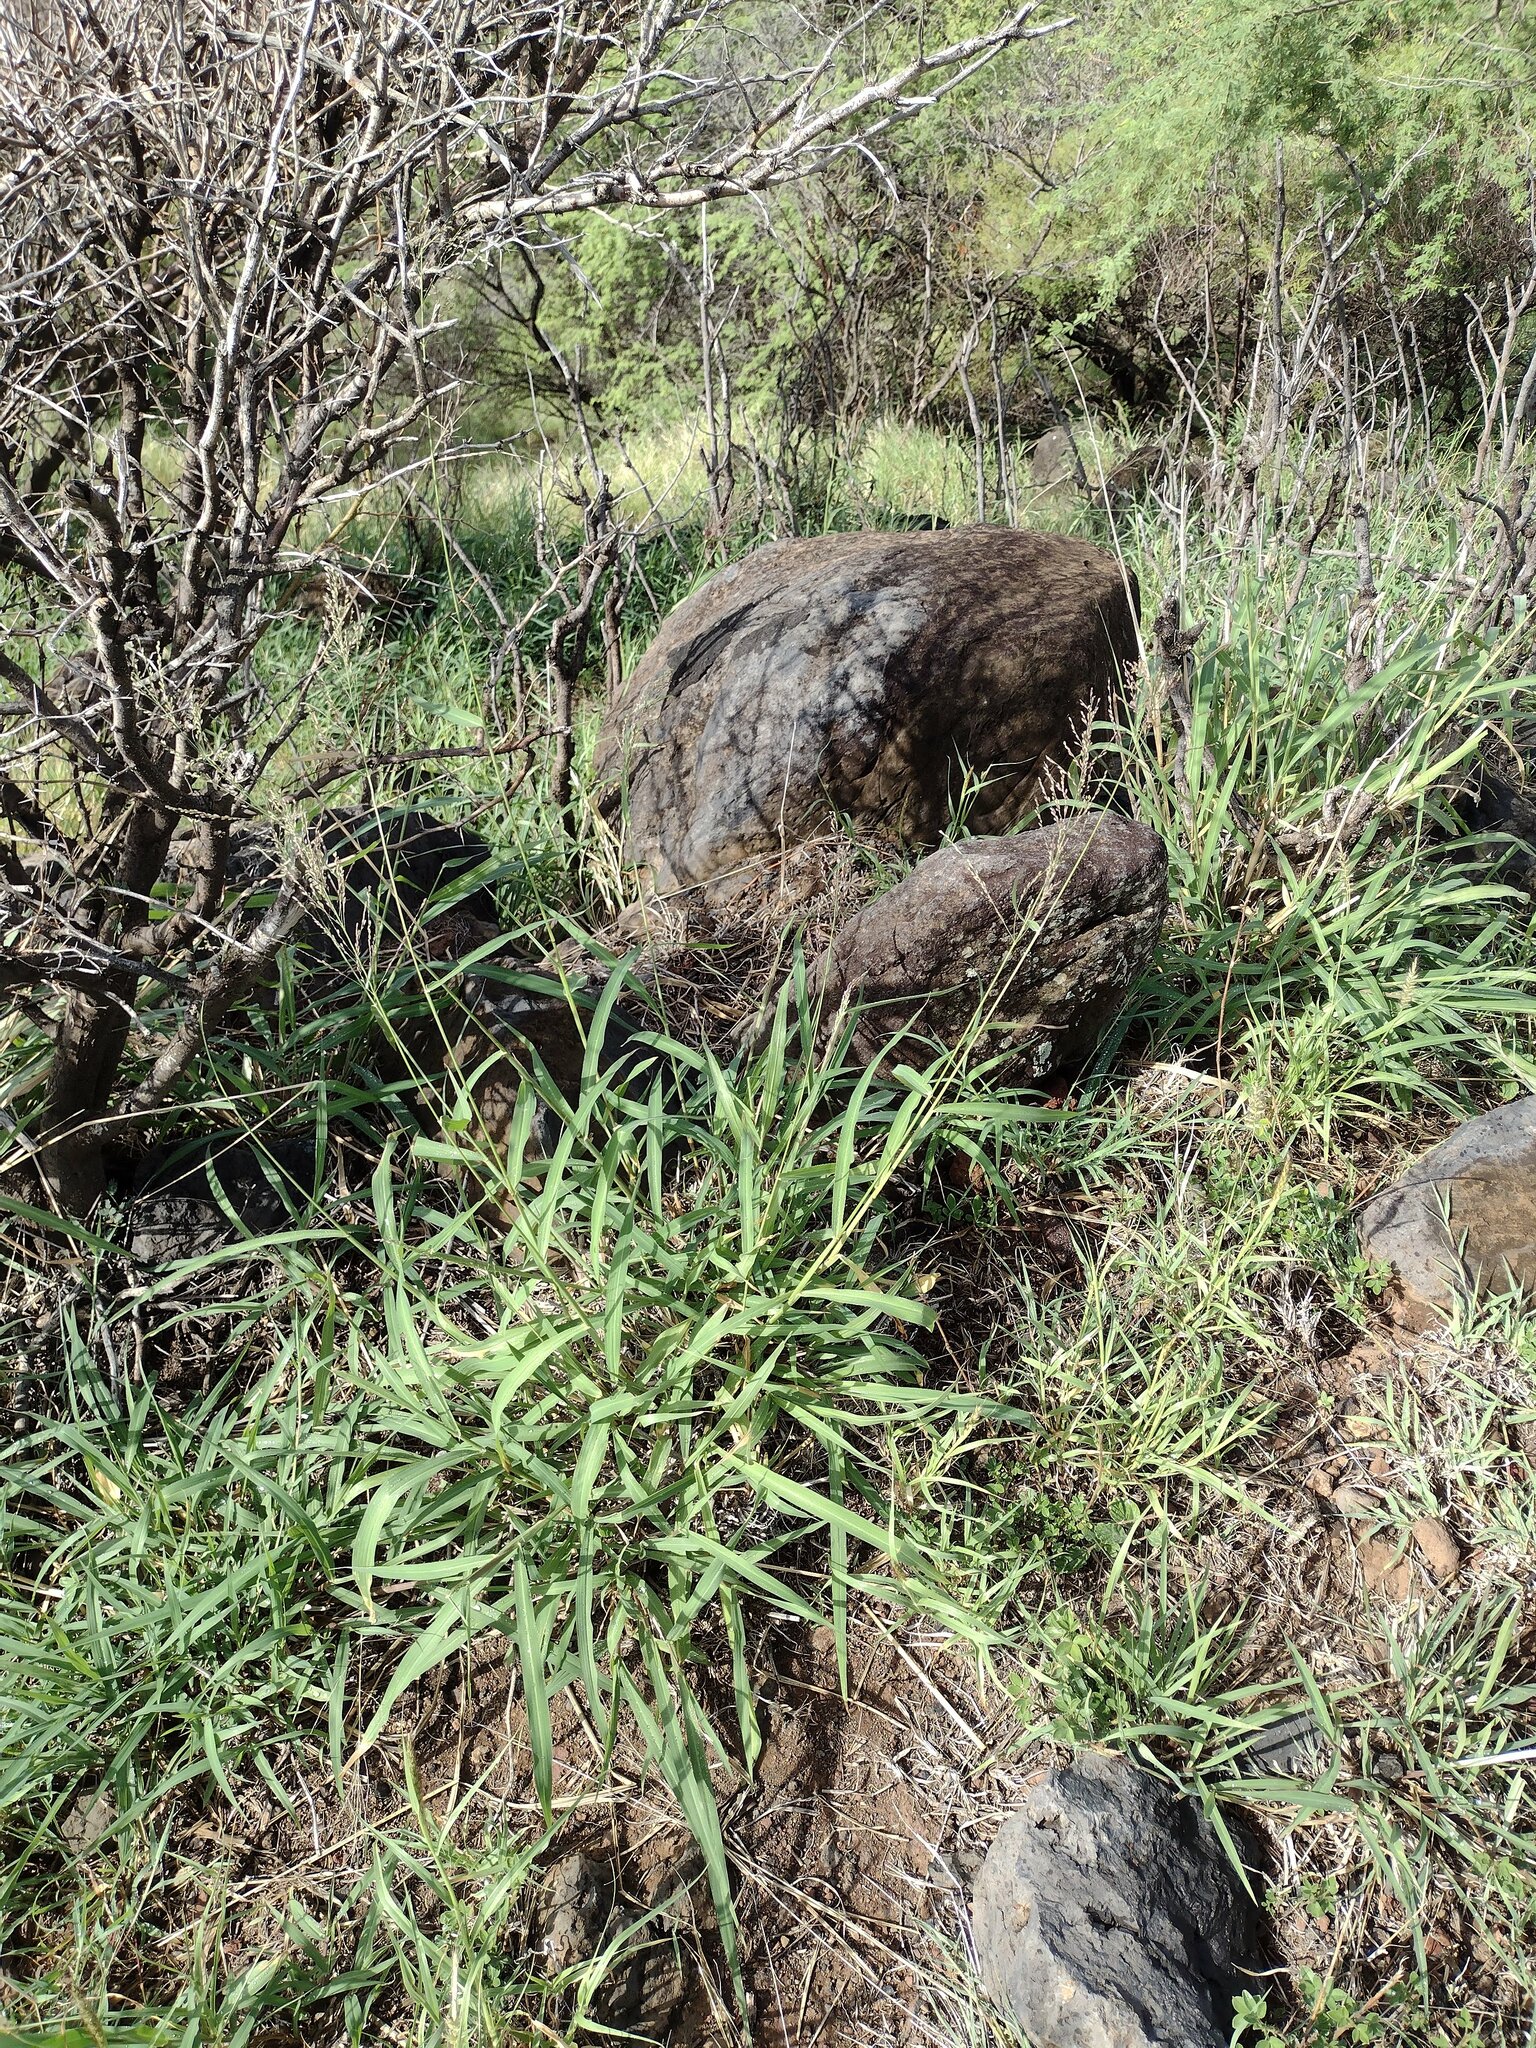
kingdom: Plantae
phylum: Tracheophyta
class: Liliopsida
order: Poales
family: Poaceae
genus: Megathyrsus
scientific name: Megathyrsus maximus
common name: Guineagrass
